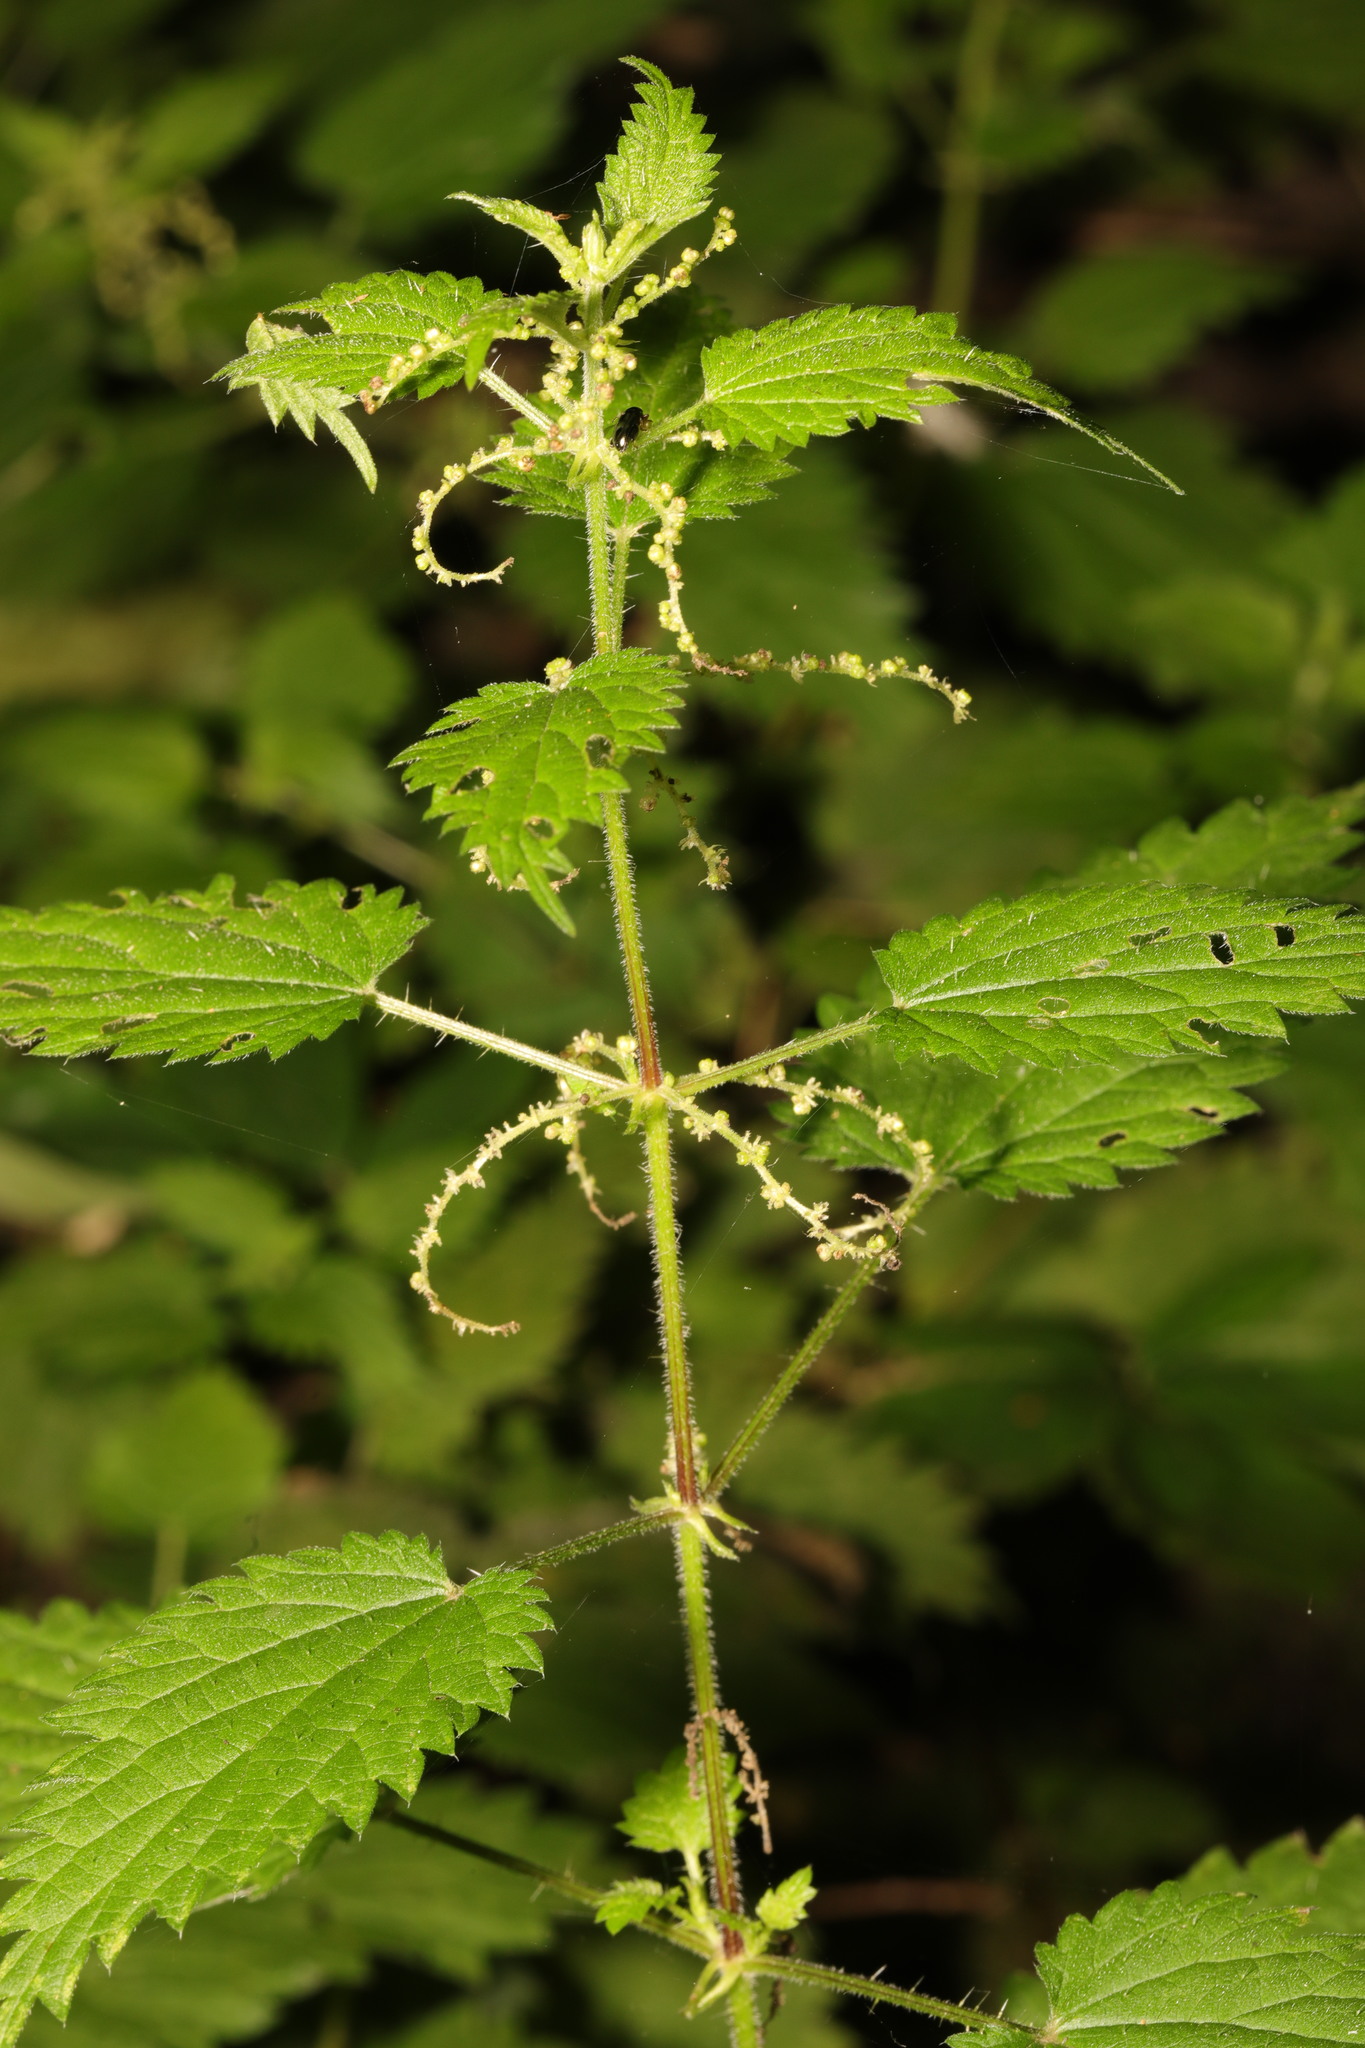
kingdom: Plantae
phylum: Tracheophyta
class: Magnoliopsida
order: Rosales
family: Urticaceae
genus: Urtica
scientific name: Urtica dioica
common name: Common nettle
